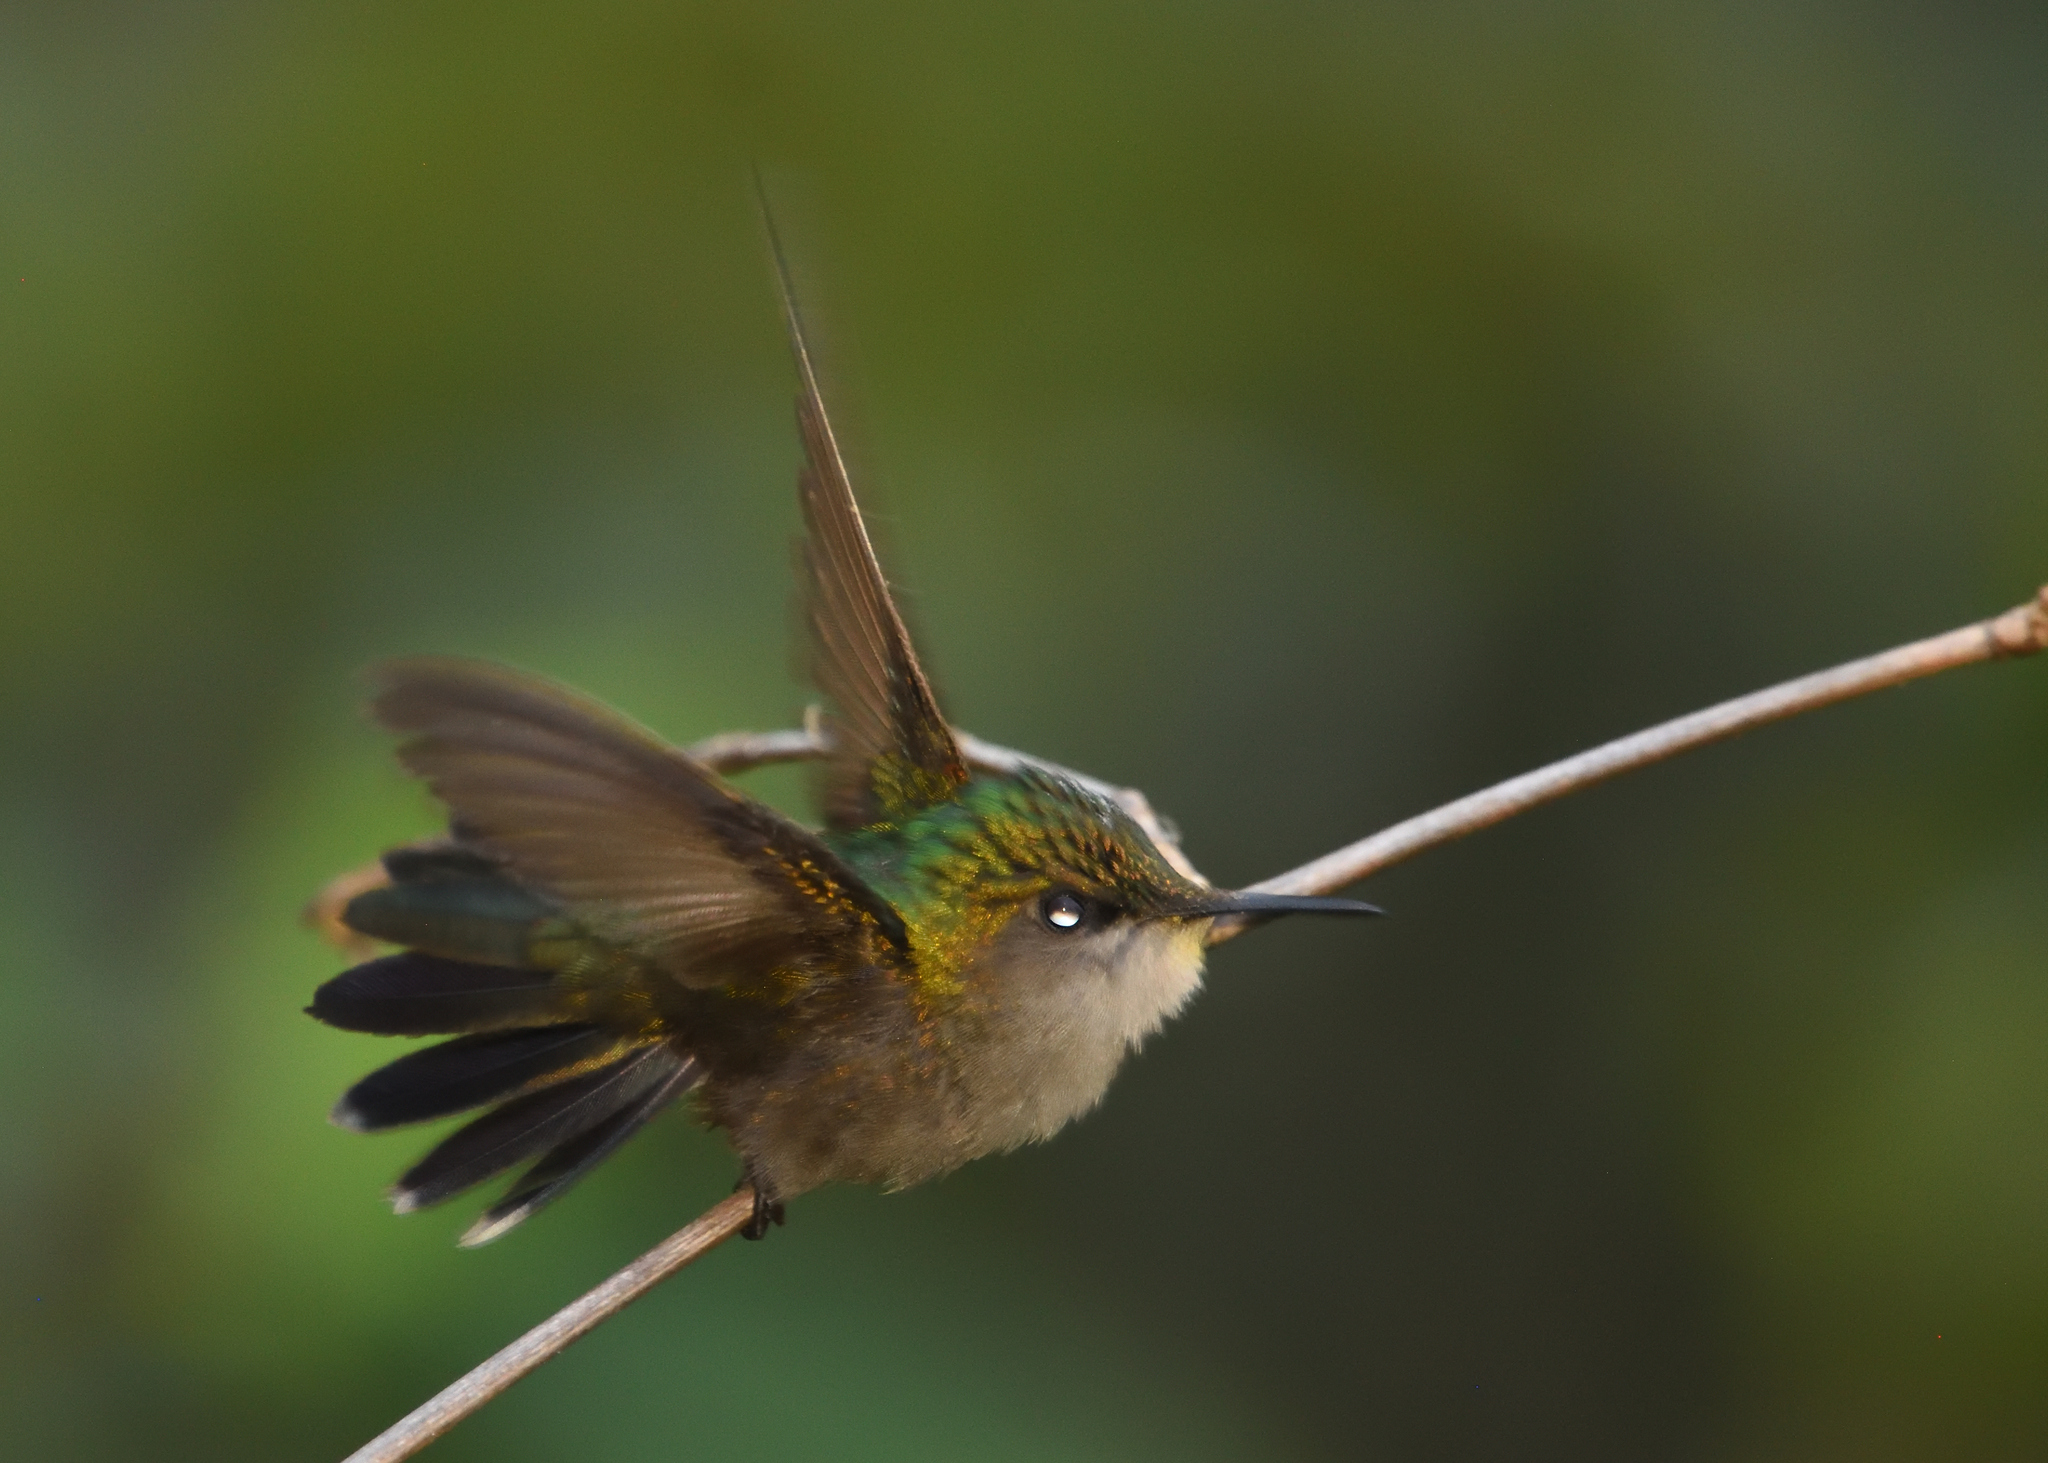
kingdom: Animalia
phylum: Chordata
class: Aves
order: Apodiformes
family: Trochilidae
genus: Orthorhyncus
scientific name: Orthorhyncus cristatus
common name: Antillean crested hummingbird
